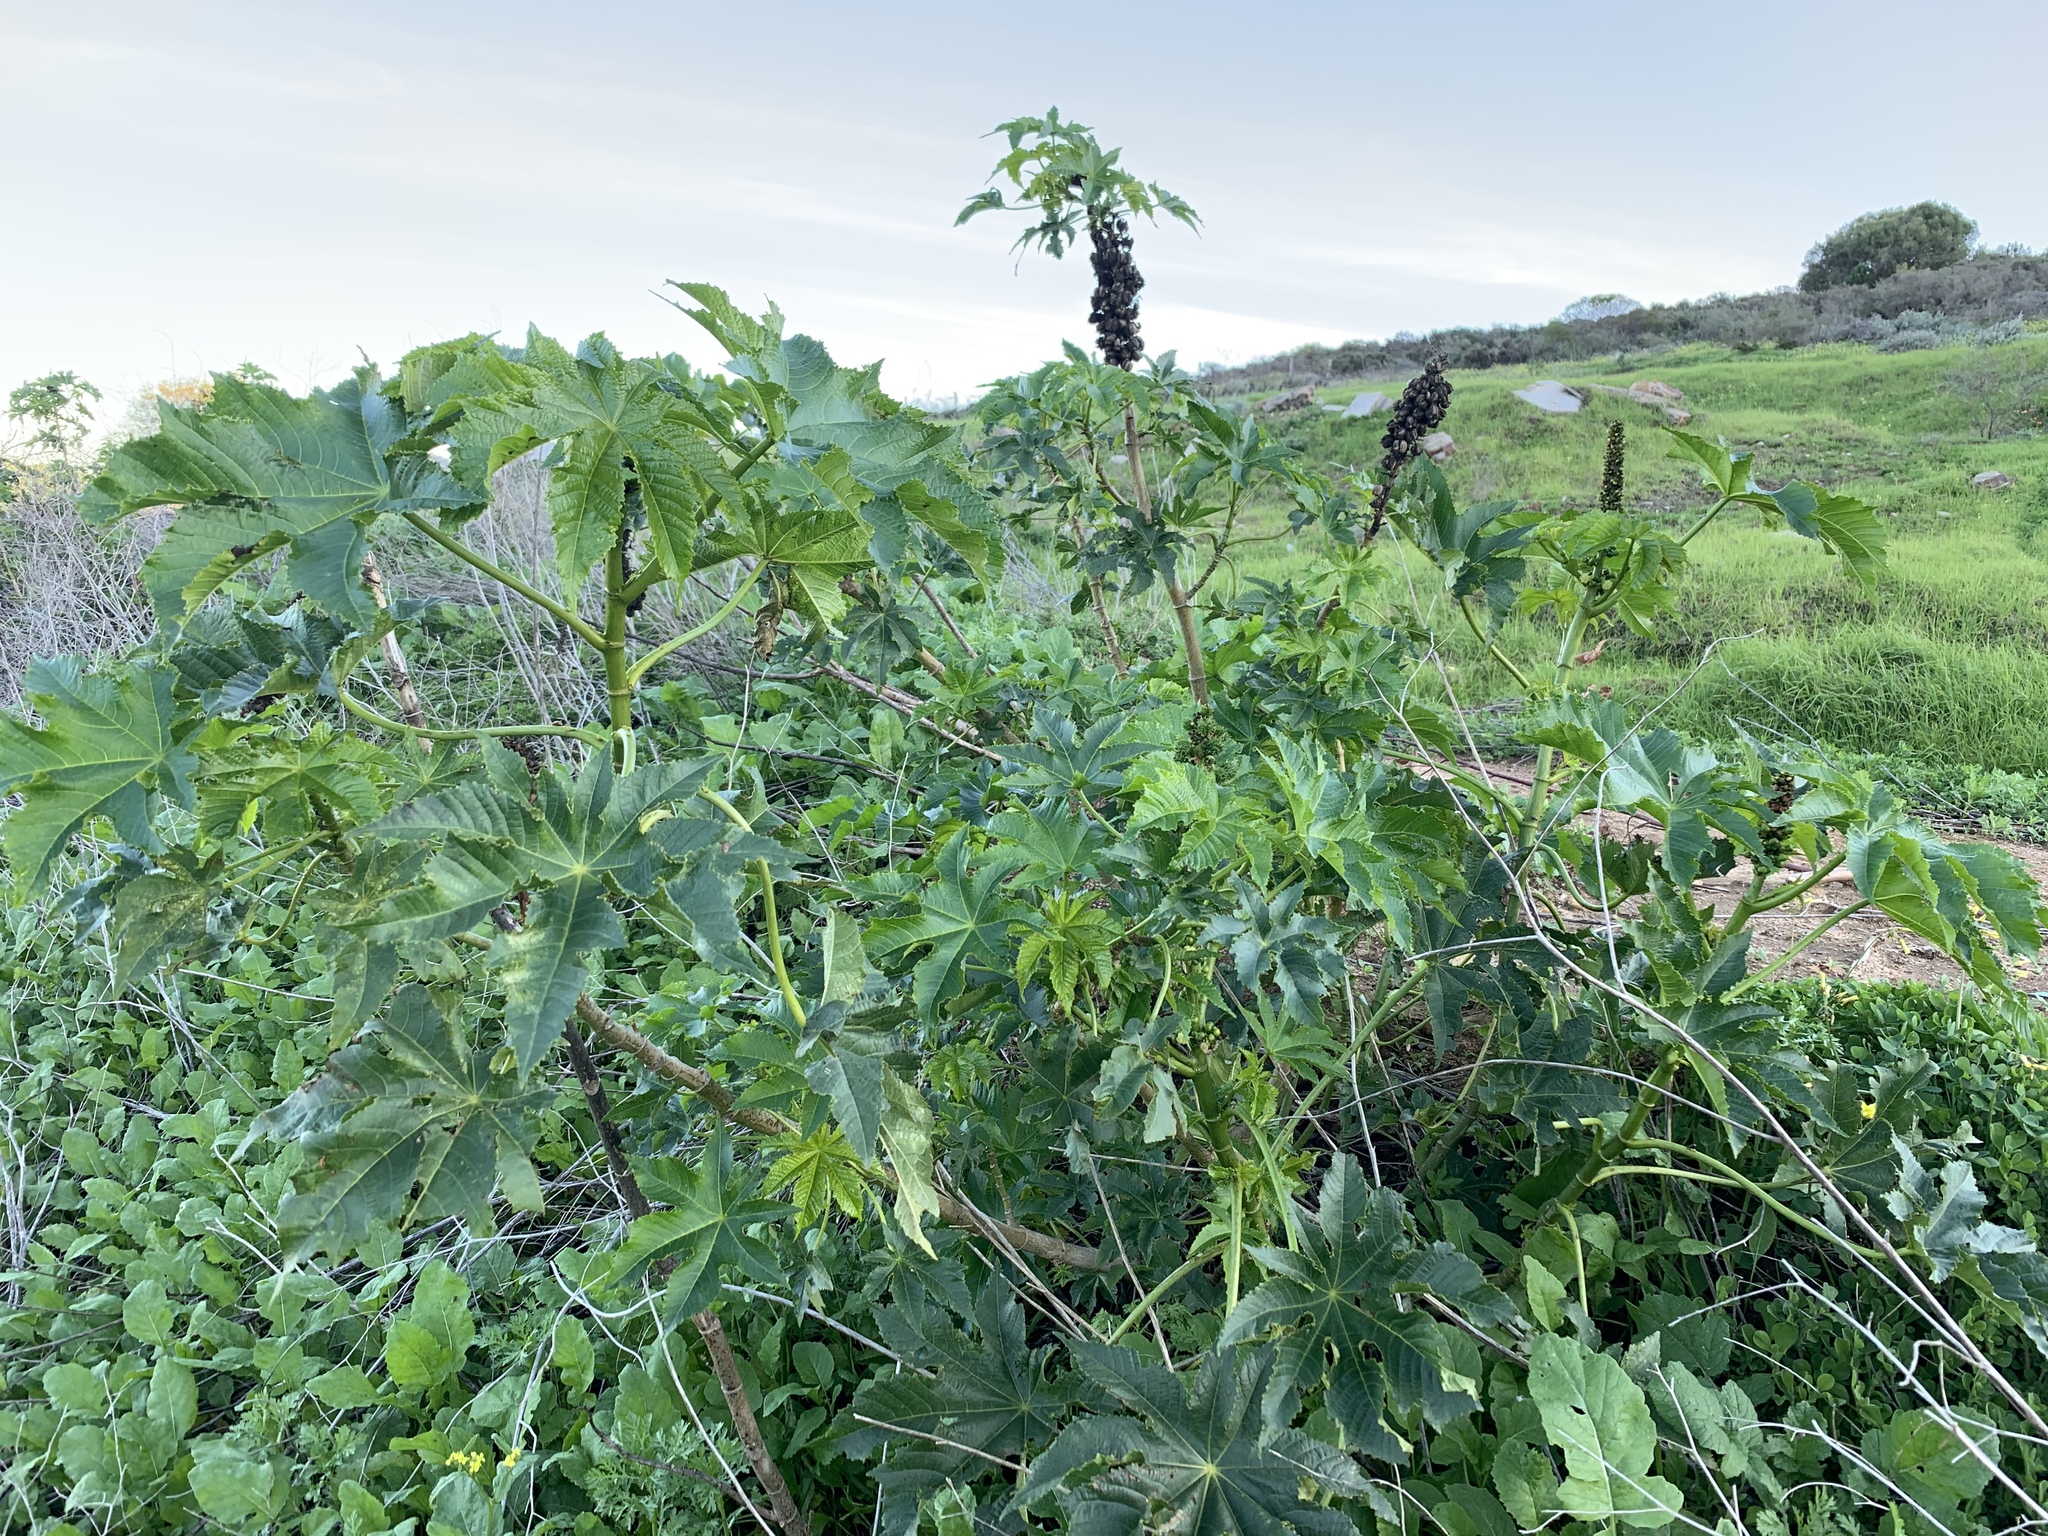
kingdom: Plantae
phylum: Tracheophyta
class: Magnoliopsida
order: Malpighiales
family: Euphorbiaceae
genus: Ricinus
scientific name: Ricinus communis
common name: Castor-oil-plant
